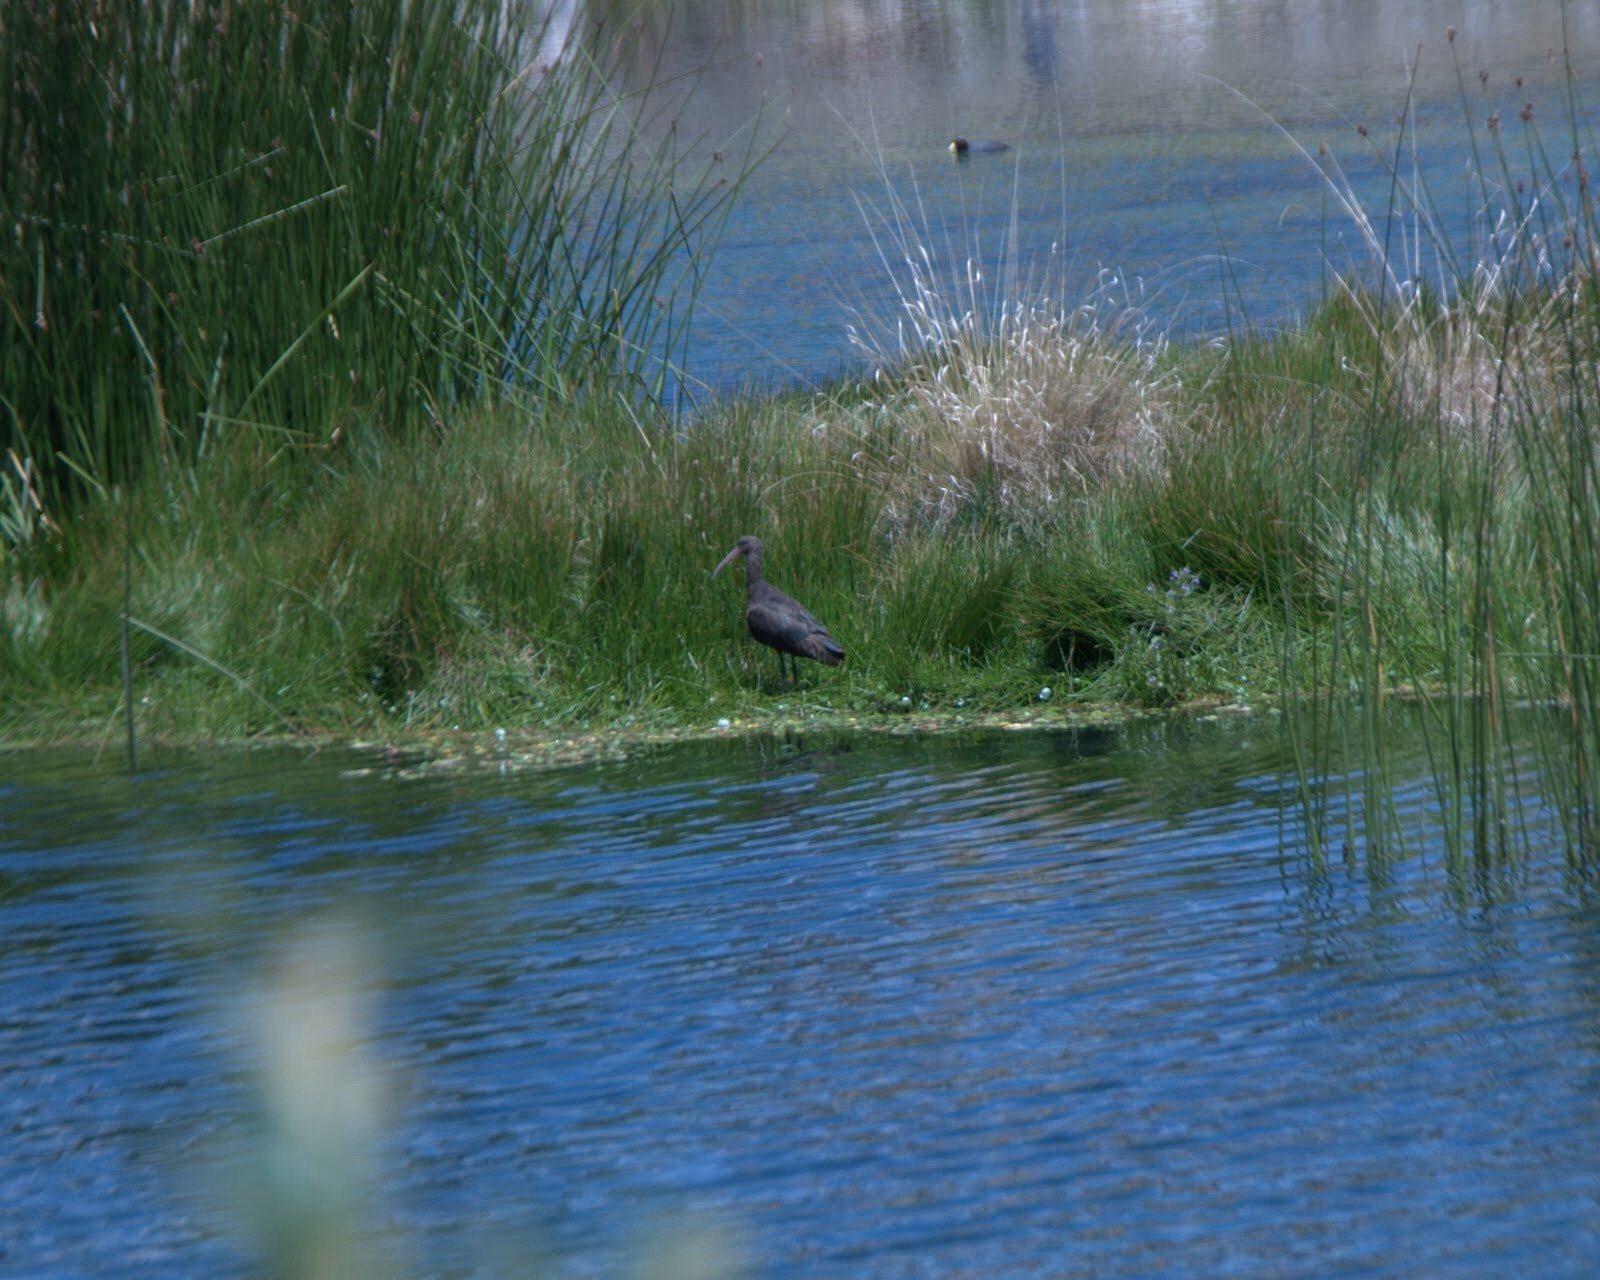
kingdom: Animalia
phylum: Chordata
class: Aves
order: Pelecaniformes
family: Threskiornithidae
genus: Plegadis
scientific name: Plegadis ridgwayi
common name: Puna ibis
